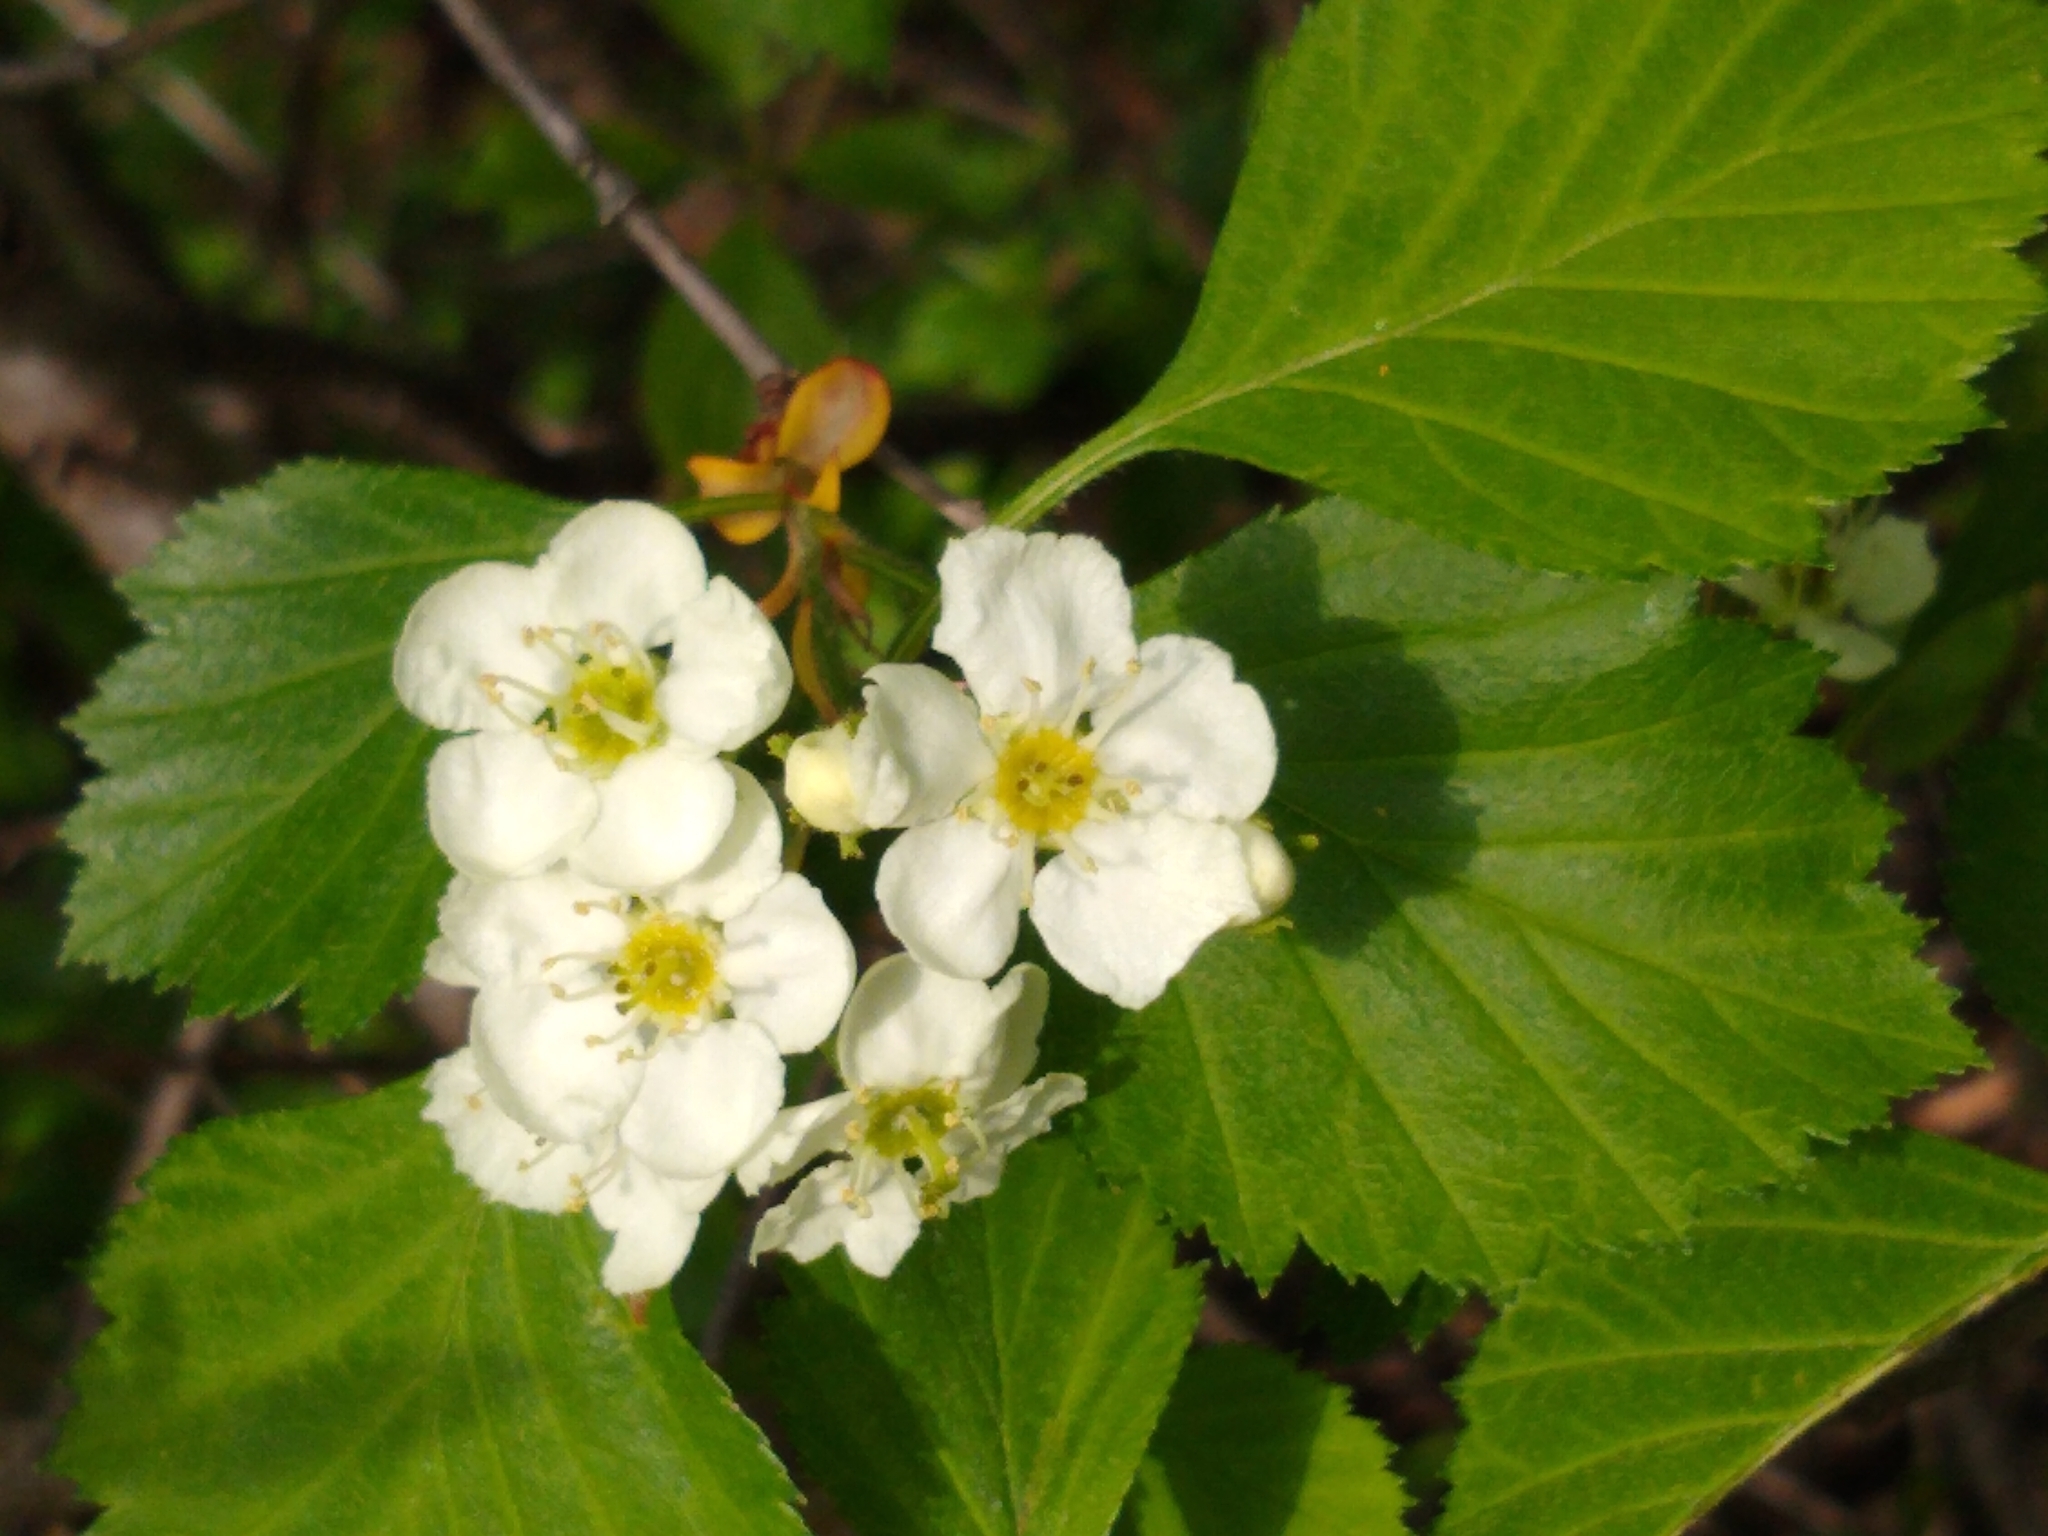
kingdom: Plantae
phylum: Tracheophyta
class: Magnoliopsida
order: Rosales
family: Rosaceae
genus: Crataegus
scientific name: Crataegus chrysocarpa
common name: Fire-berry hawthorn
